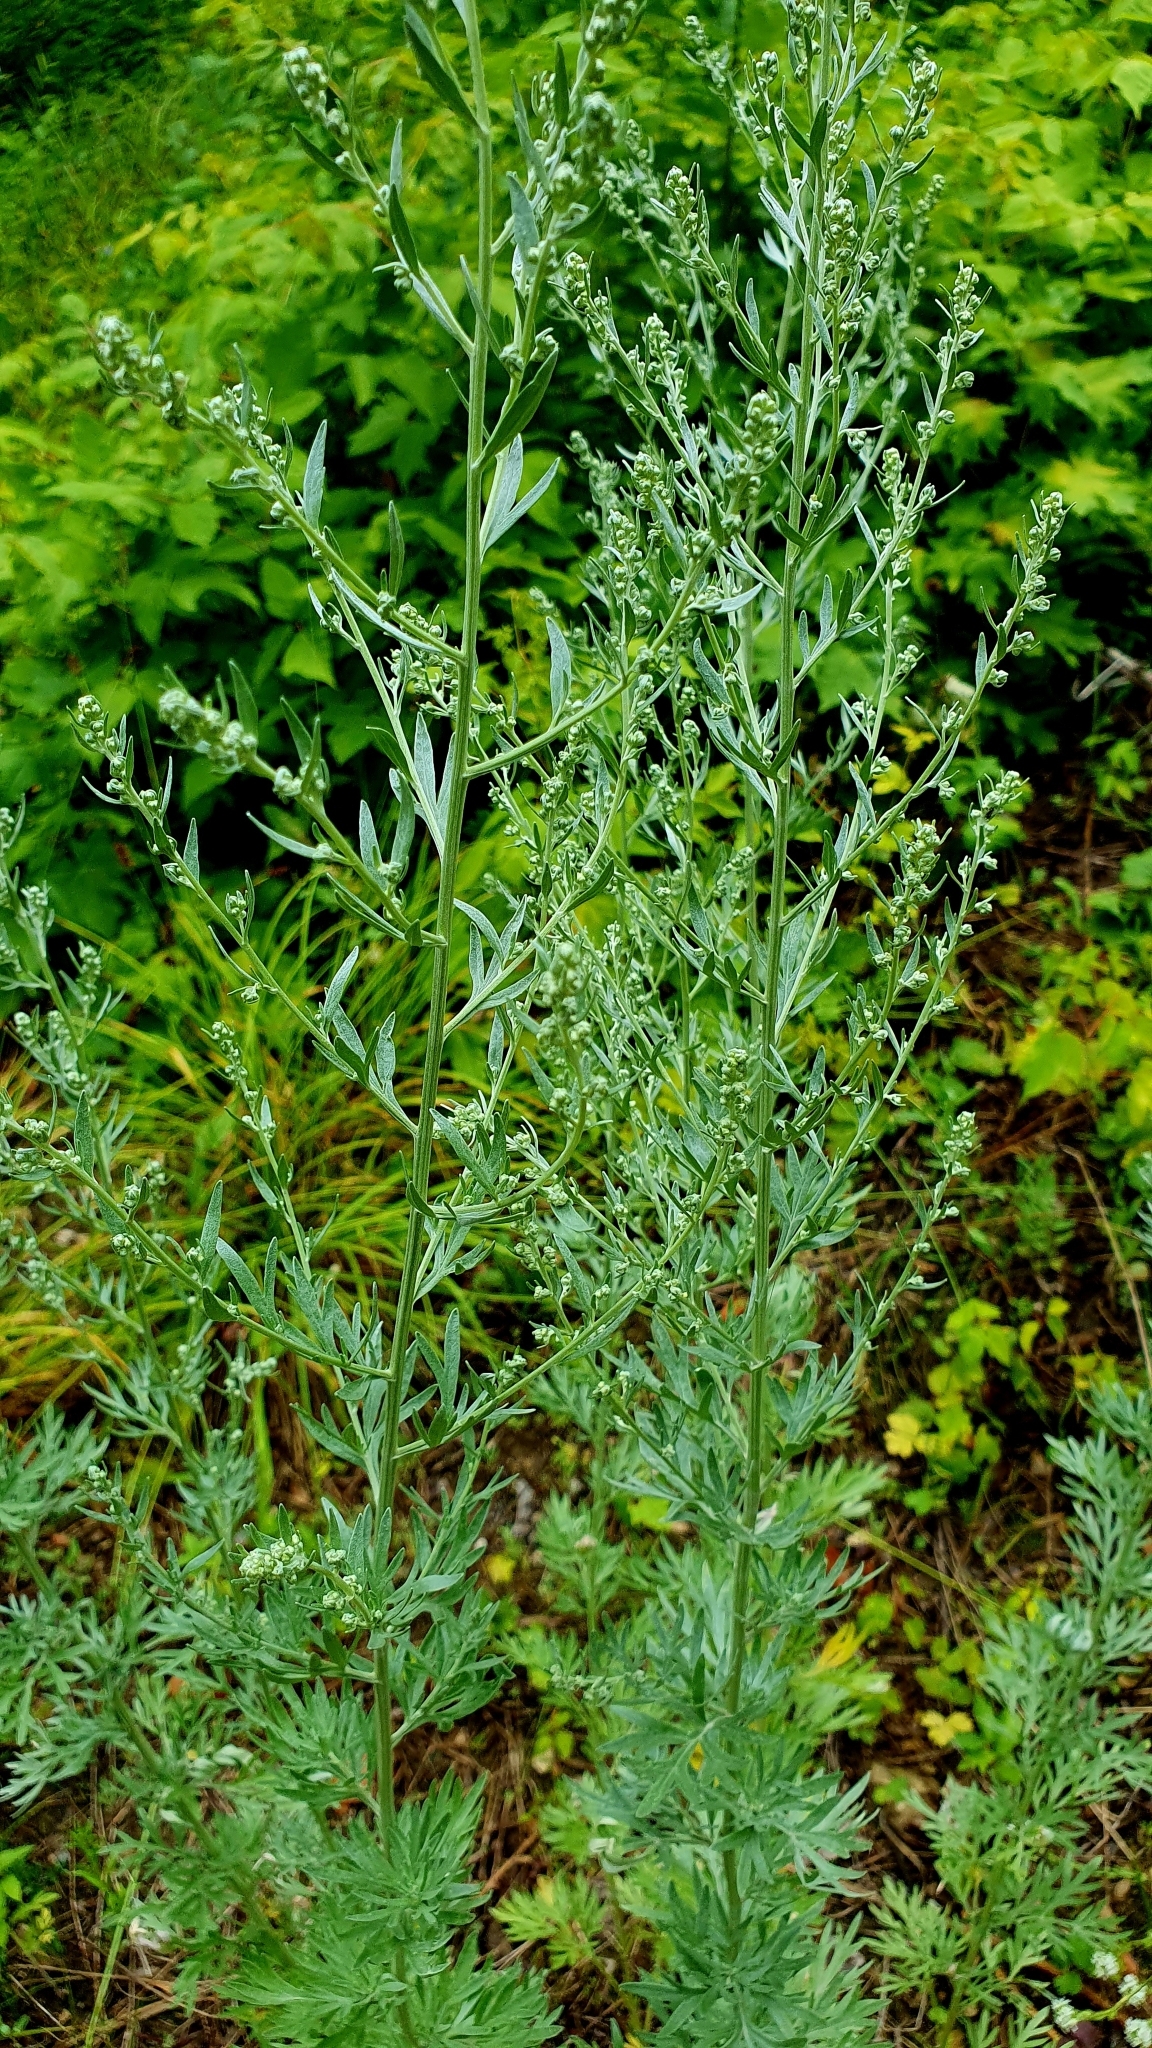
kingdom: Plantae
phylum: Tracheophyta
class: Magnoliopsida
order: Asterales
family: Asteraceae
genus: Artemisia
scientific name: Artemisia absinthium
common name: Wormwood
